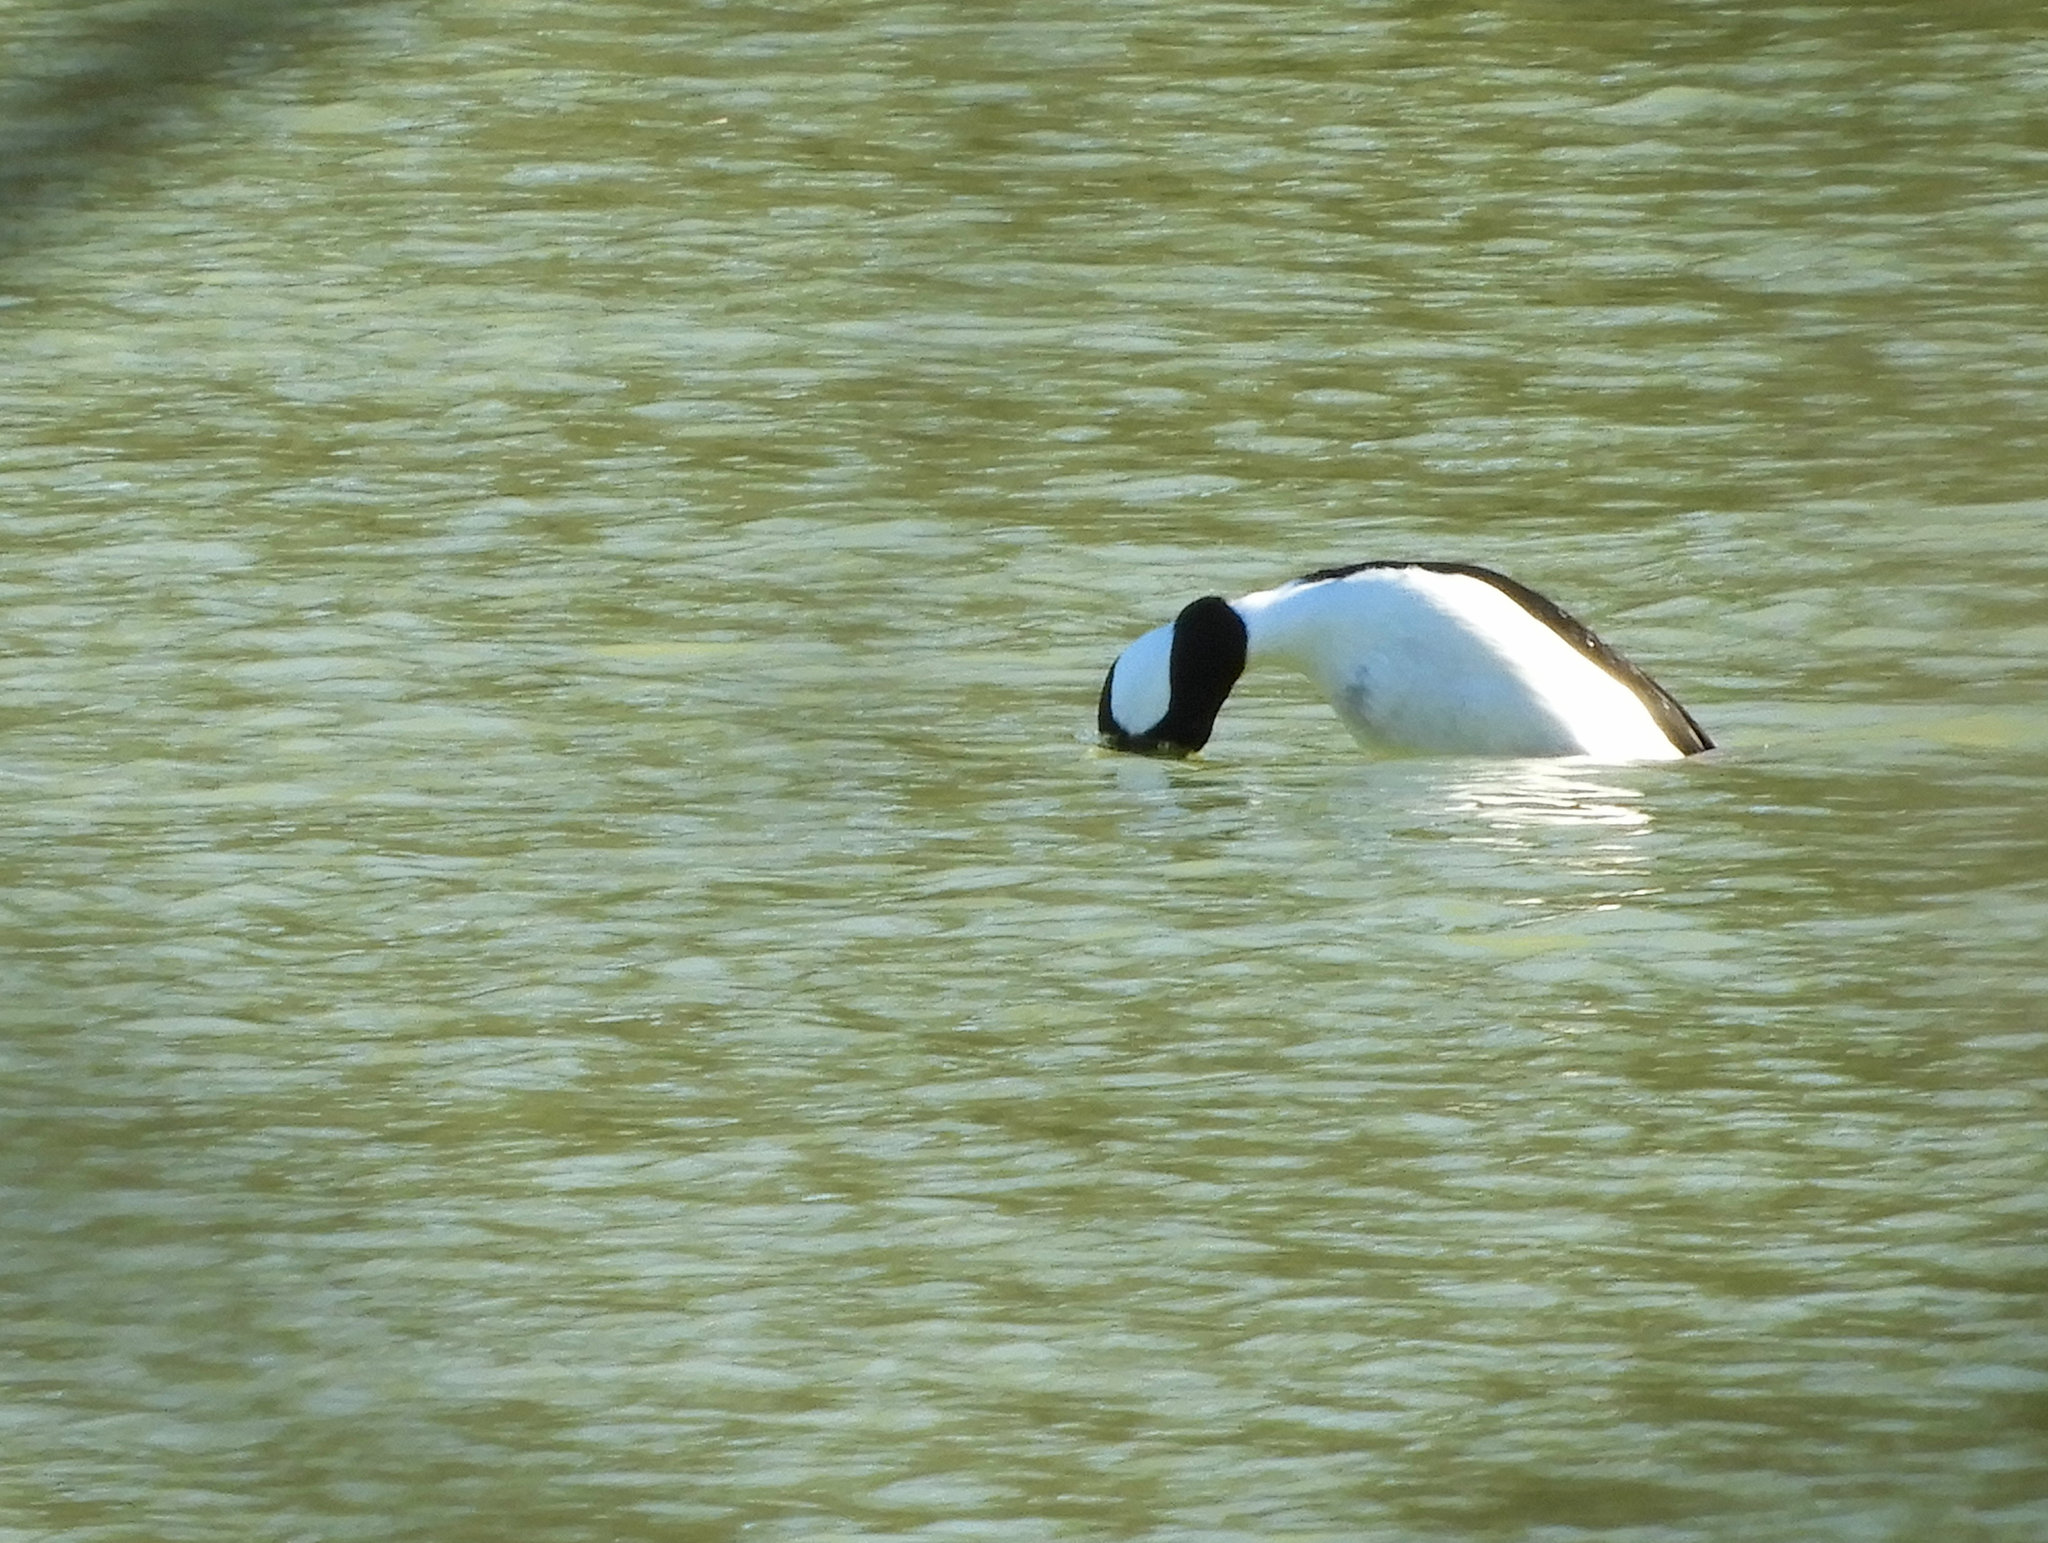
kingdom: Animalia
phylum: Chordata
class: Aves
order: Anseriformes
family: Anatidae
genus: Bucephala
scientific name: Bucephala albeola
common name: Bufflehead
